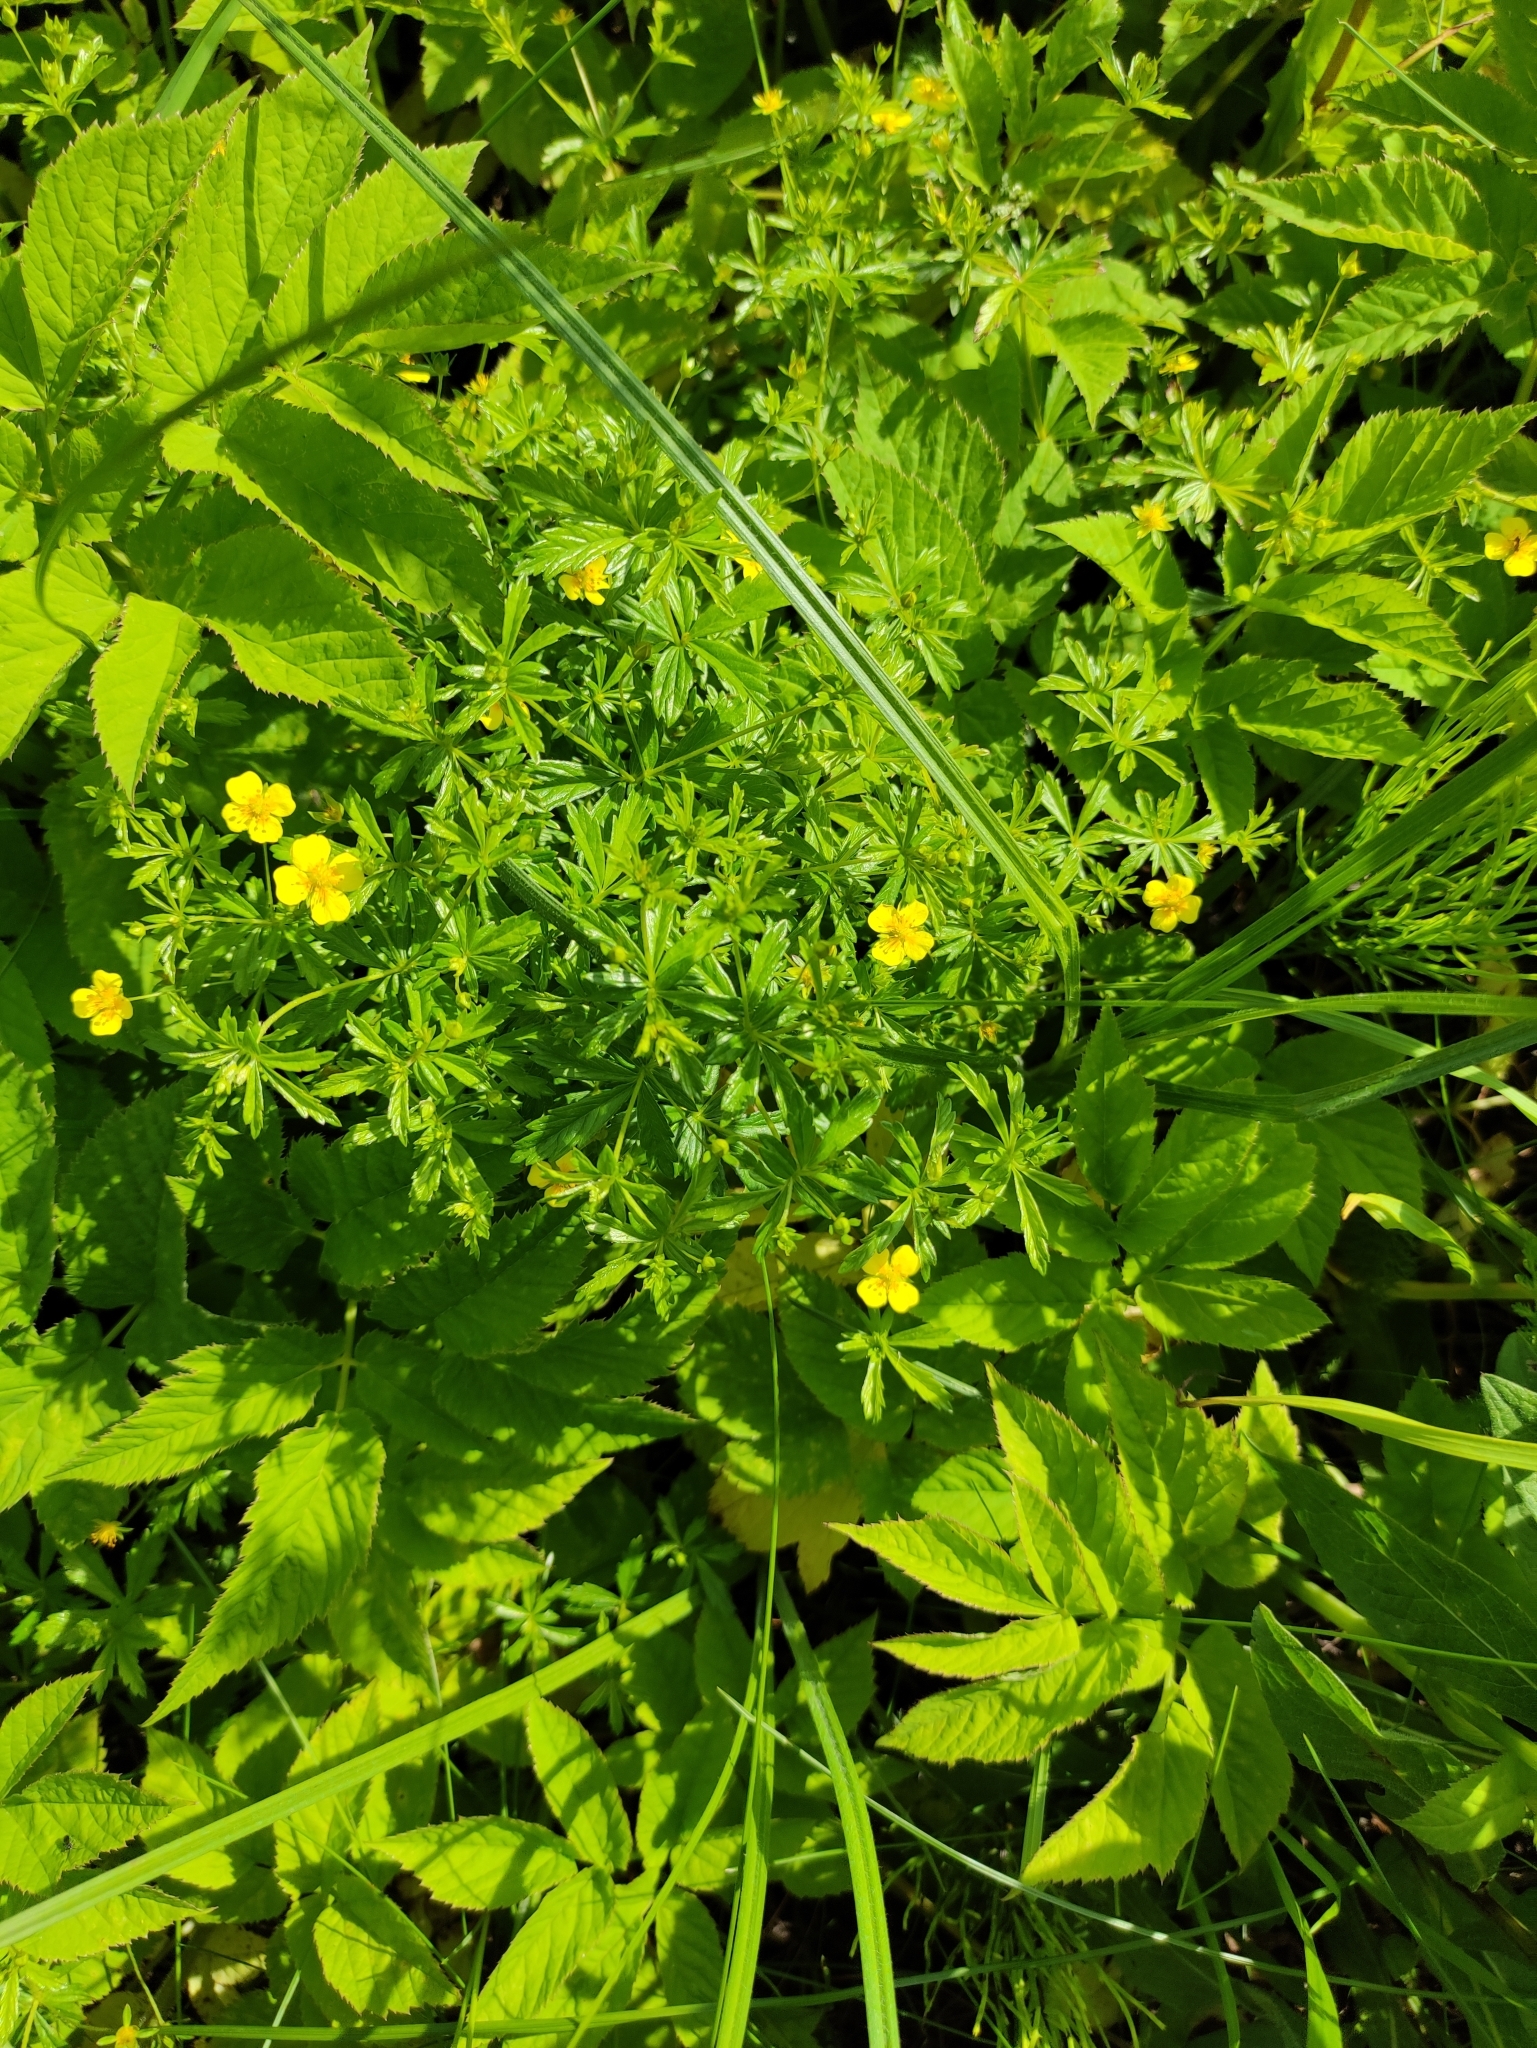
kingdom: Plantae
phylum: Tracheophyta
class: Magnoliopsida
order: Rosales
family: Rosaceae
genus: Potentilla
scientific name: Potentilla erecta
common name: Tormentil
